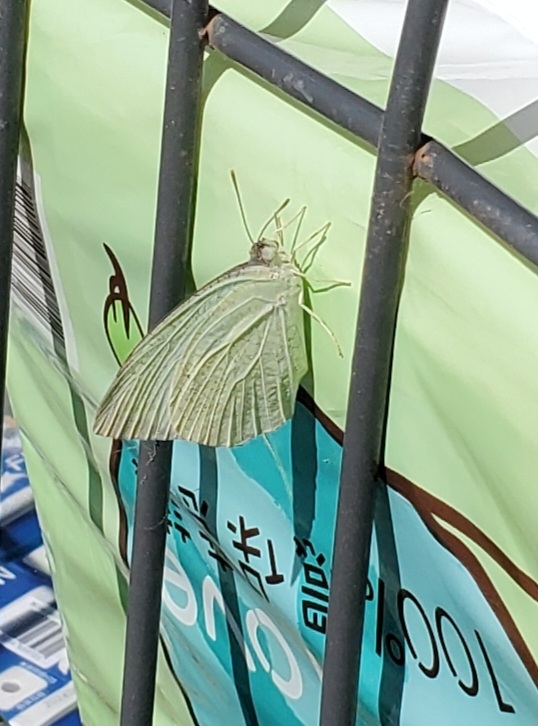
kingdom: Animalia
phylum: Arthropoda
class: Insecta
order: Lepidoptera
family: Pieridae
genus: Catopsilia
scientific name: Catopsilia pyranthe
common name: Mottled emigrant
